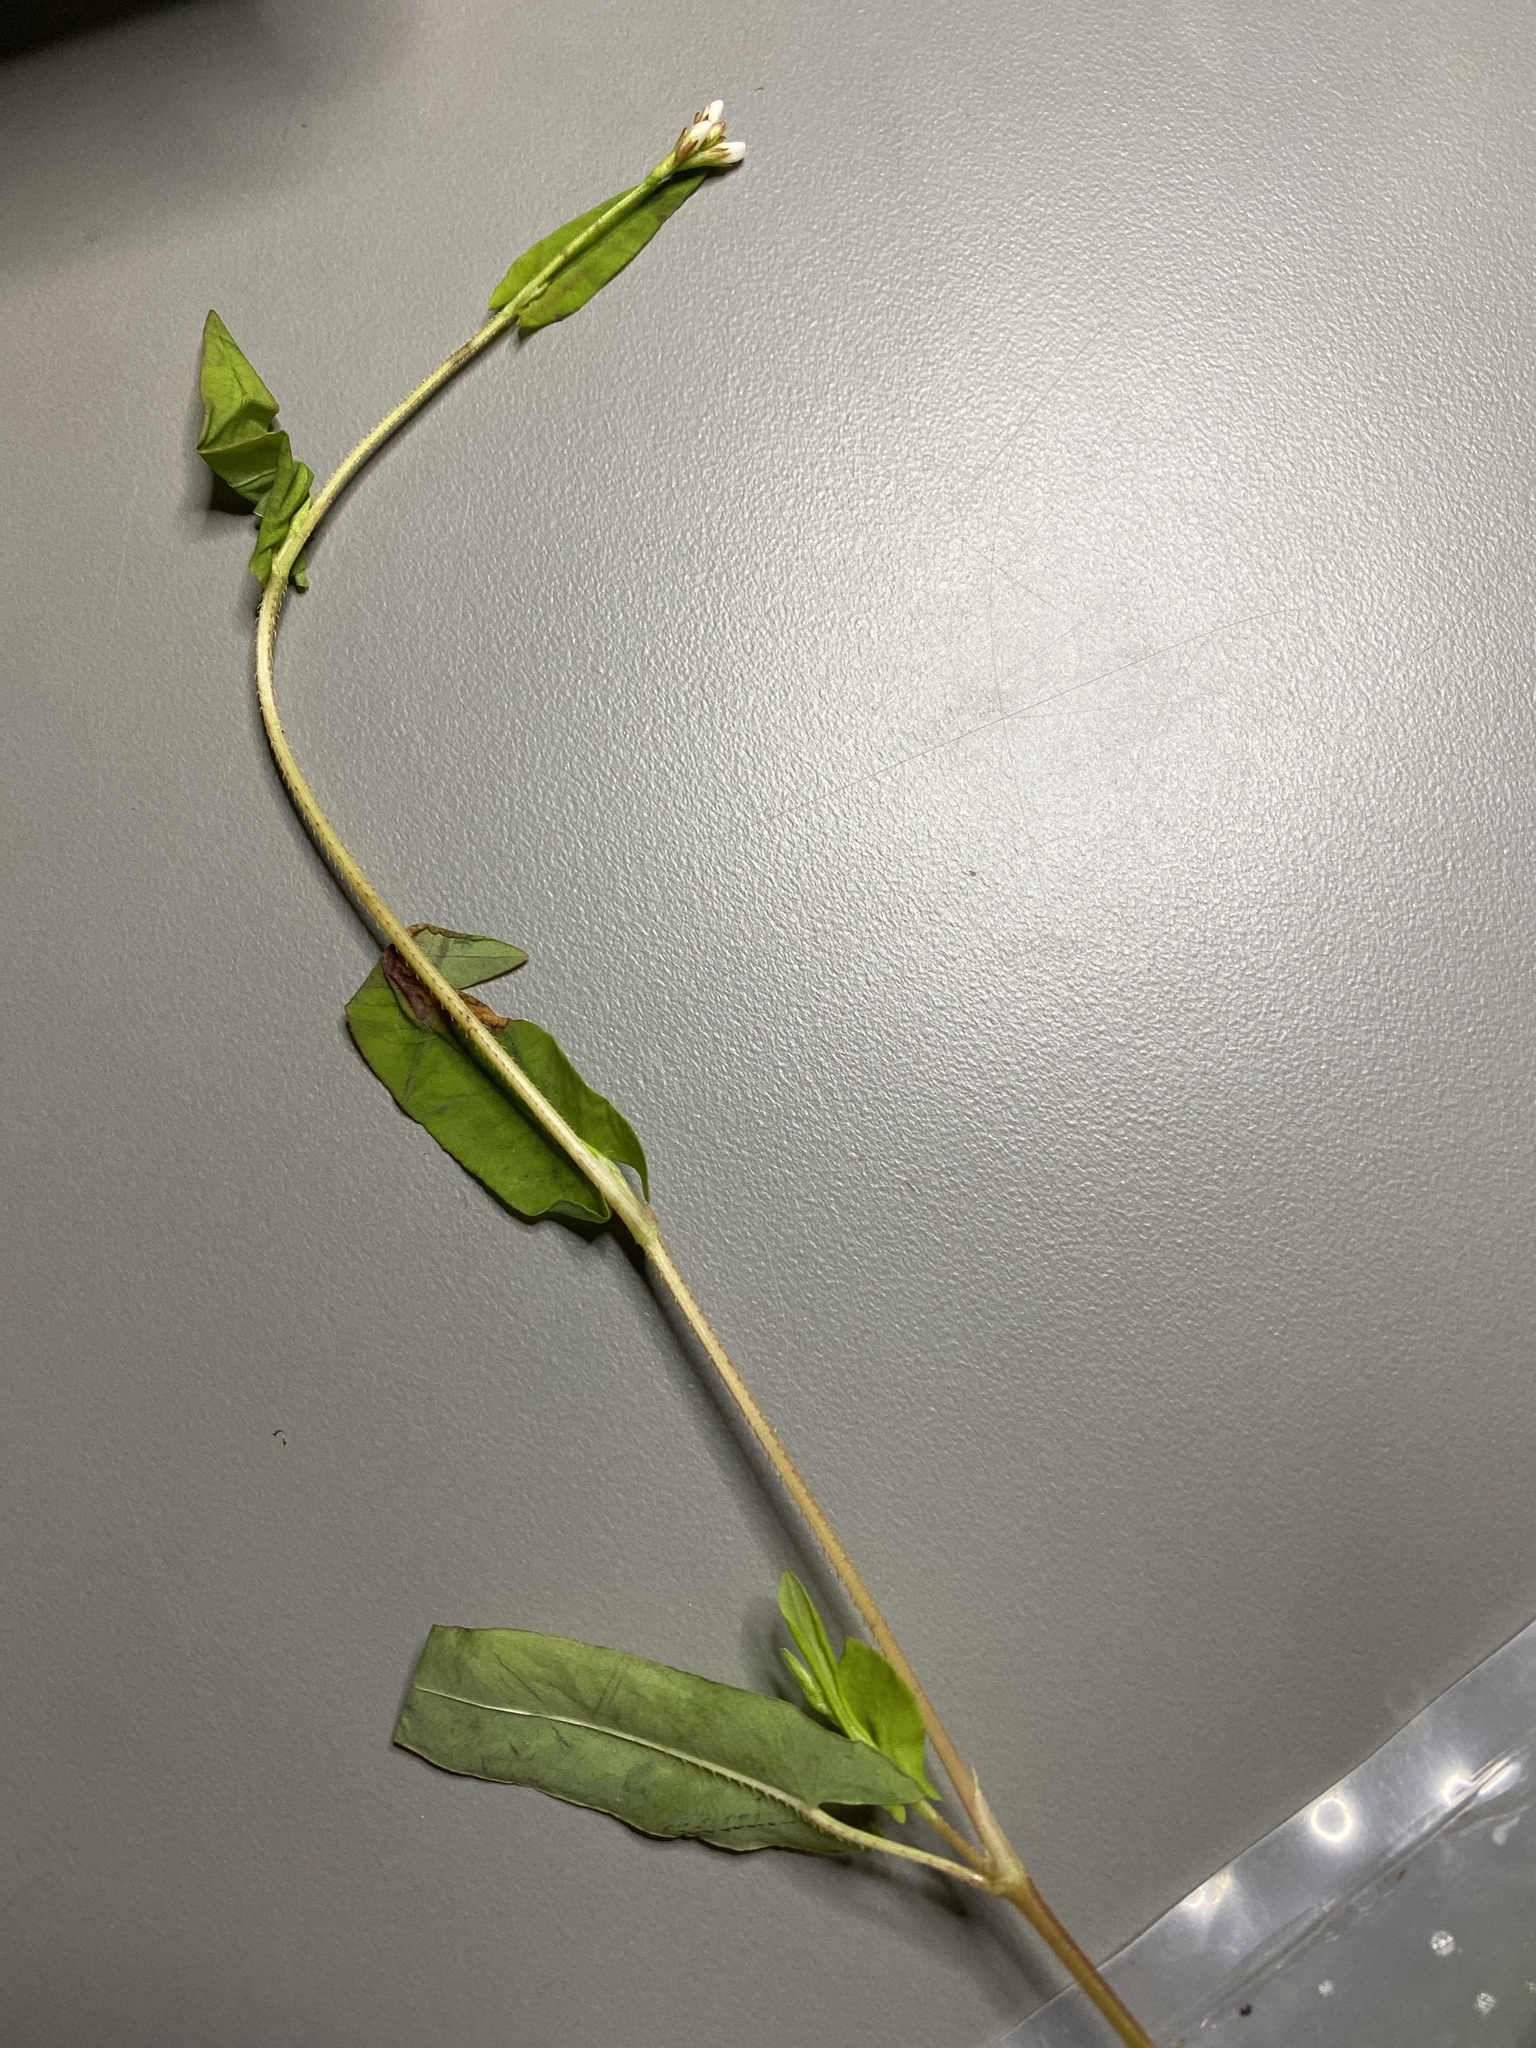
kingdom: Plantae
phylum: Tracheophyta
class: Magnoliopsida
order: Caryophyllales
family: Polygonaceae
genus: Persicaria
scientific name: Persicaria sagittata
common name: American tearthumb
